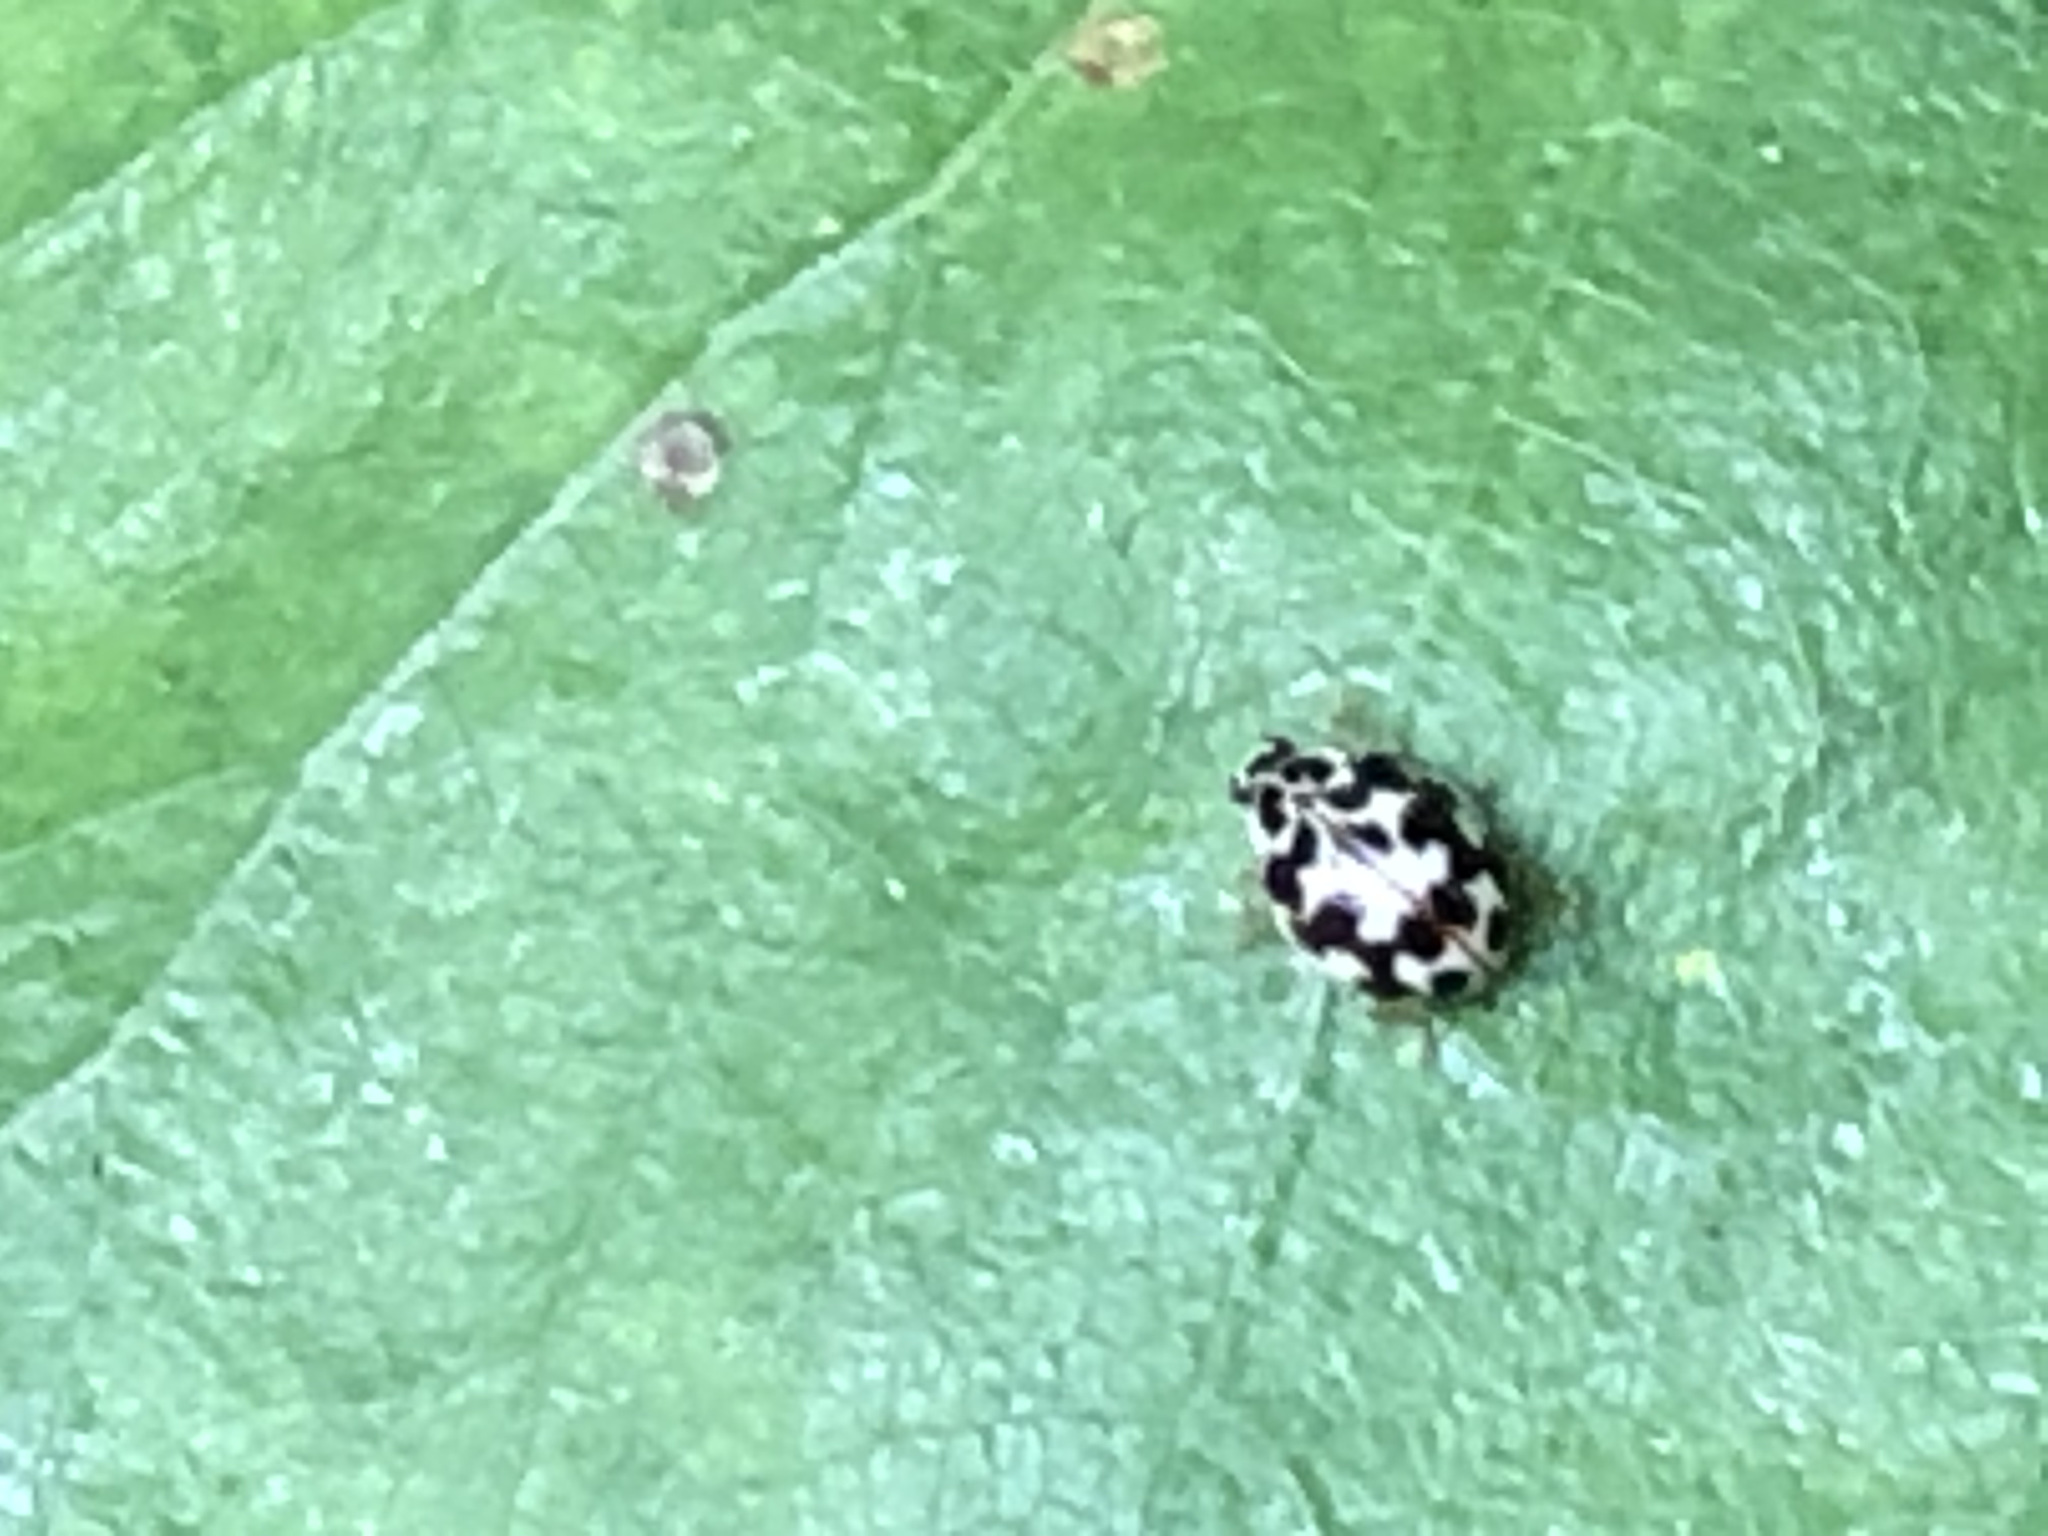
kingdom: Animalia
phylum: Arthropoda
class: Insecta
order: Coleoptera
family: Coccinellidae
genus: Psyllobora
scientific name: Psyllobora vigintimaculata
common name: Ladybird beetle
